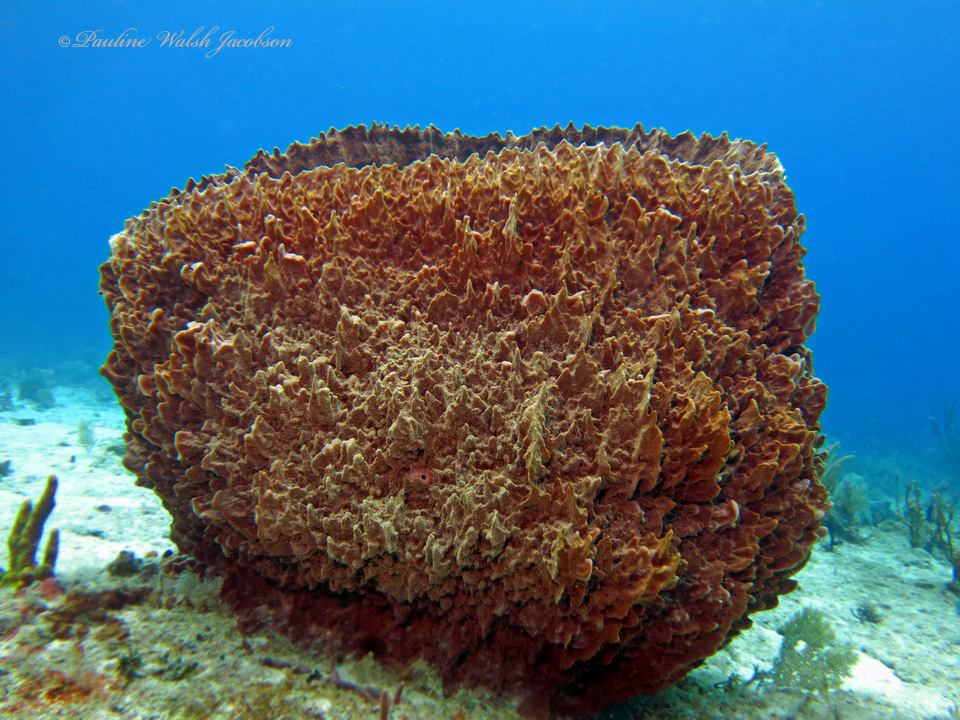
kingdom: Animalia
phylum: Porifera
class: Demospongiae
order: Haplosclerida
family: Petrosiidae
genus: Xestospongia
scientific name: Xestospongia muta
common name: Giant barrel sponge
